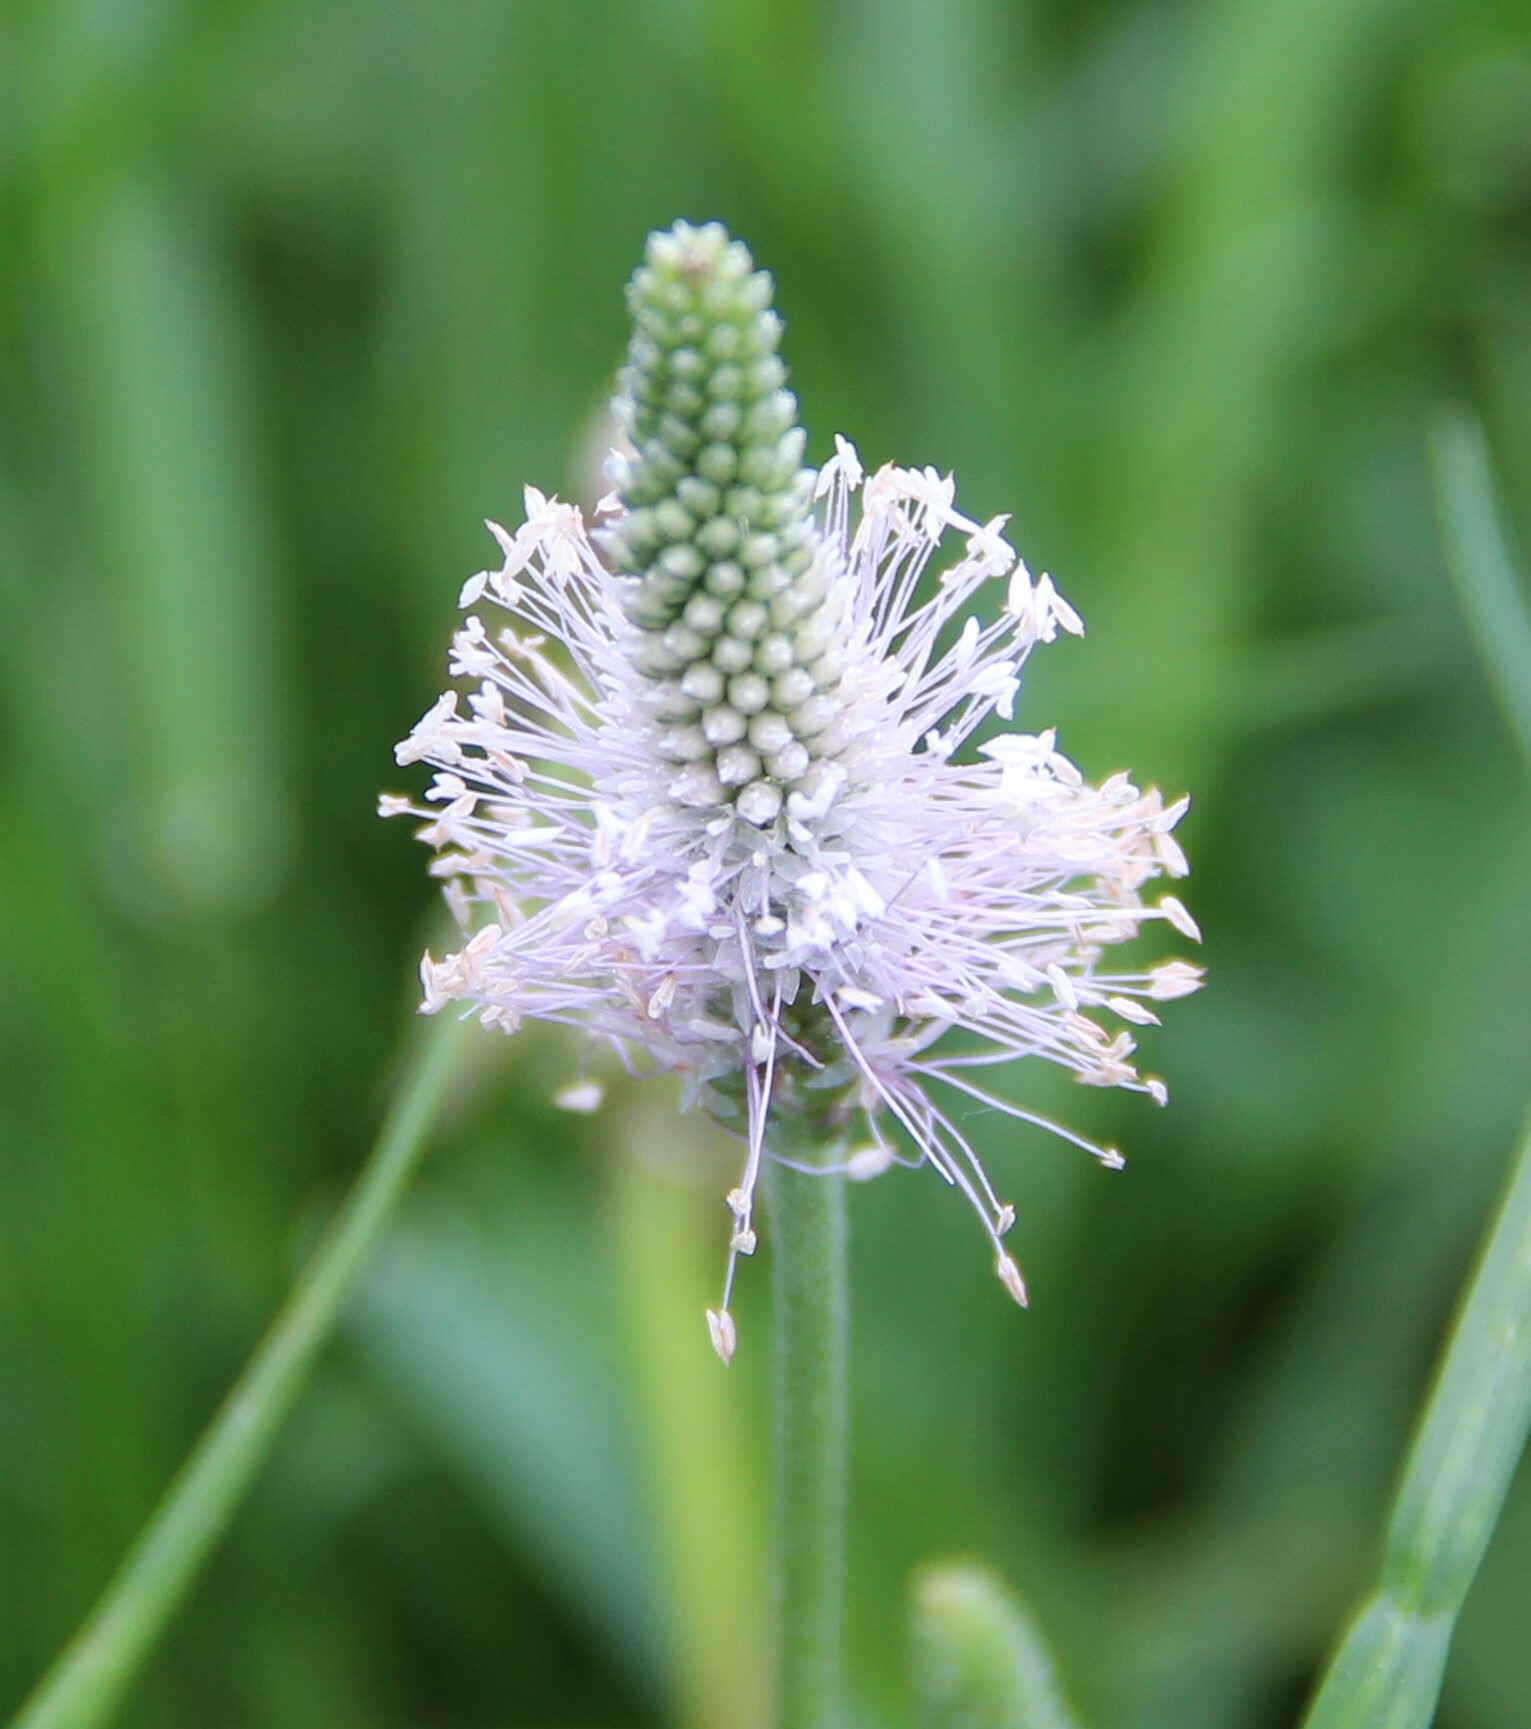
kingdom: Plantae
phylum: Tracheophyta
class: Magnoliopsida
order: Lamiales
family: Plantaginaceae
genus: Plantago
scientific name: Plantago media
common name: Hoary plantain
